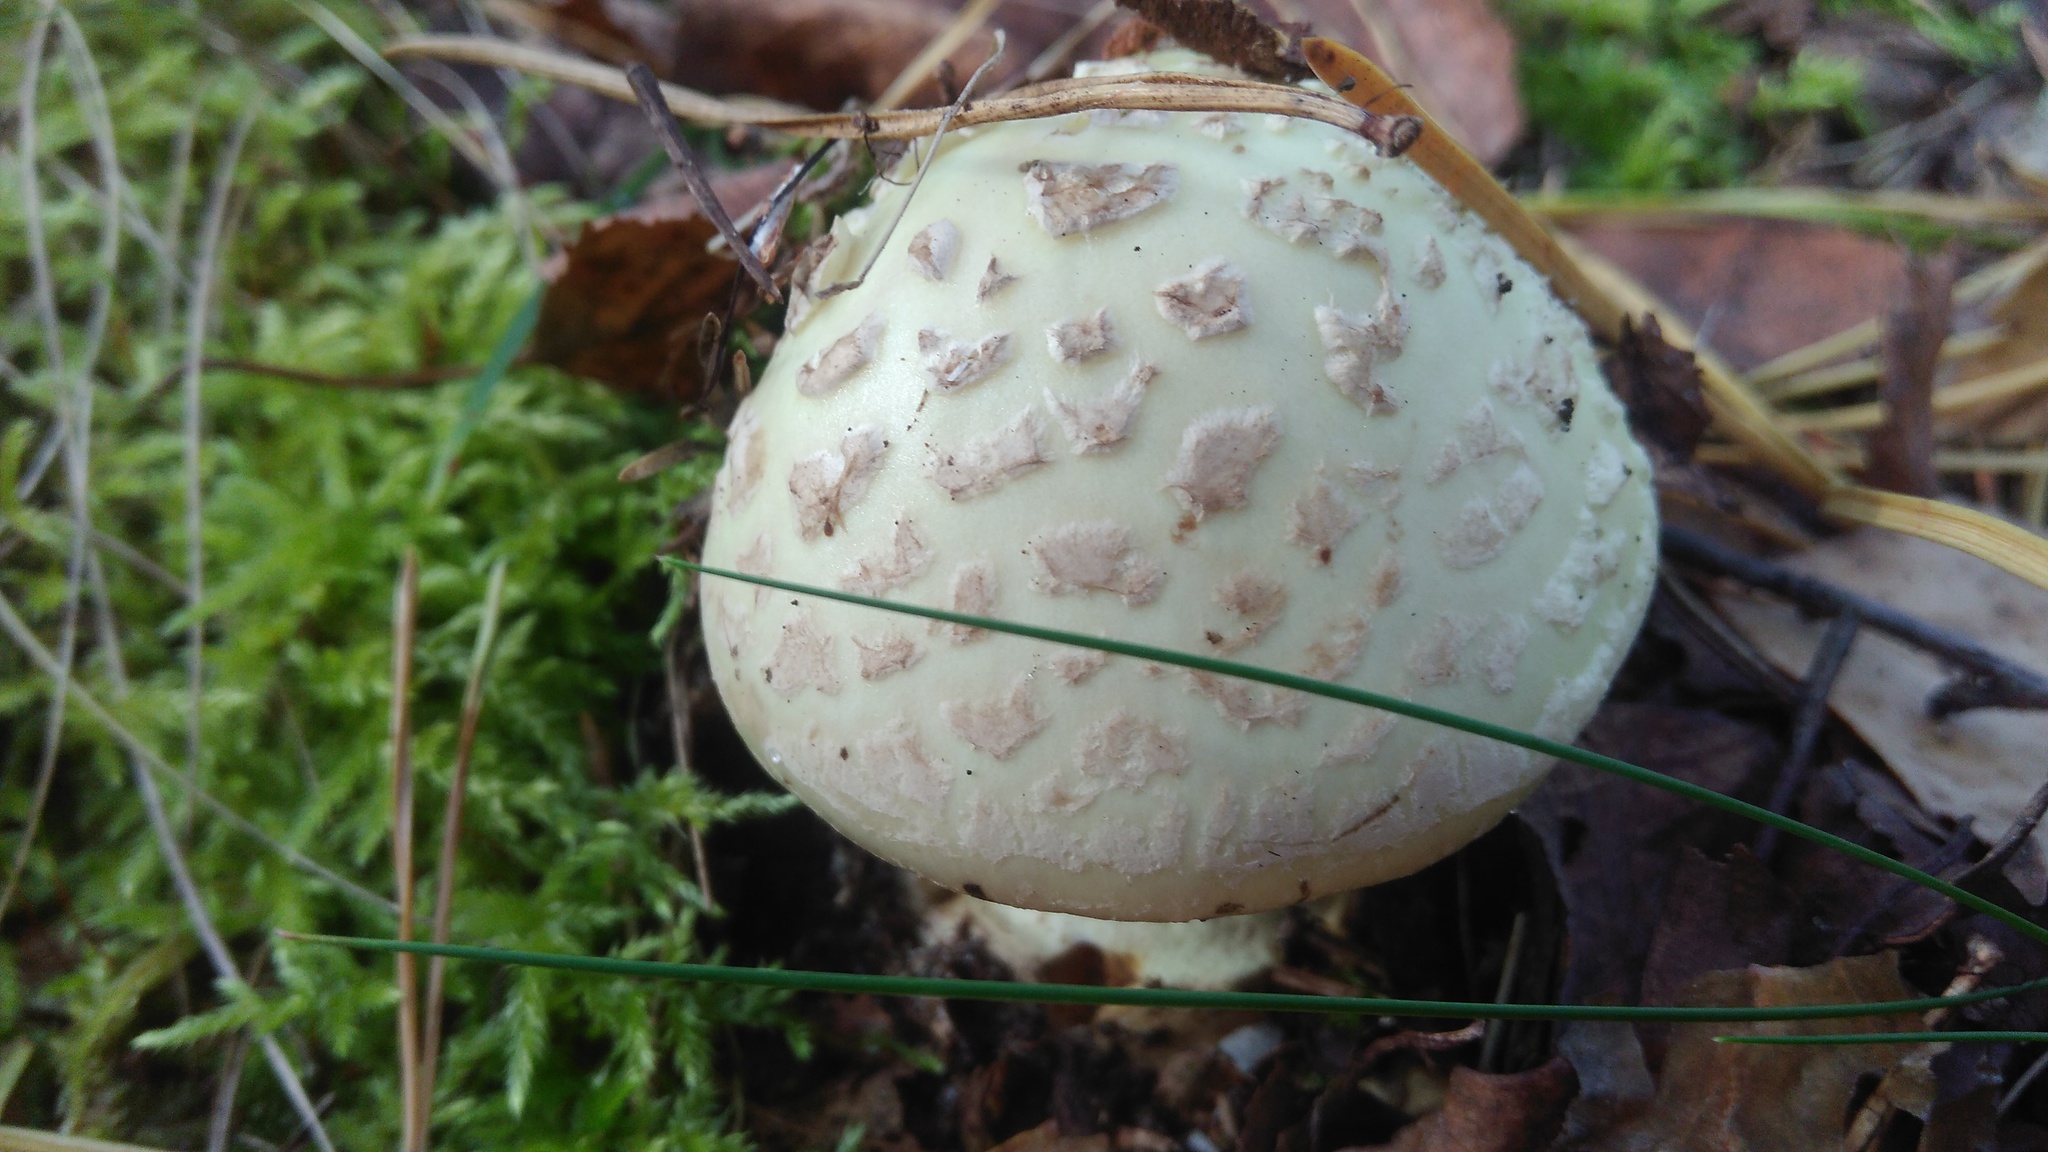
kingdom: Fungi
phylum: Basidiomycota
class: Agaricomycetes
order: Agaricales
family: Amanitaceae
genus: Amanita
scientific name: Amanita citrina
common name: False death-cap
